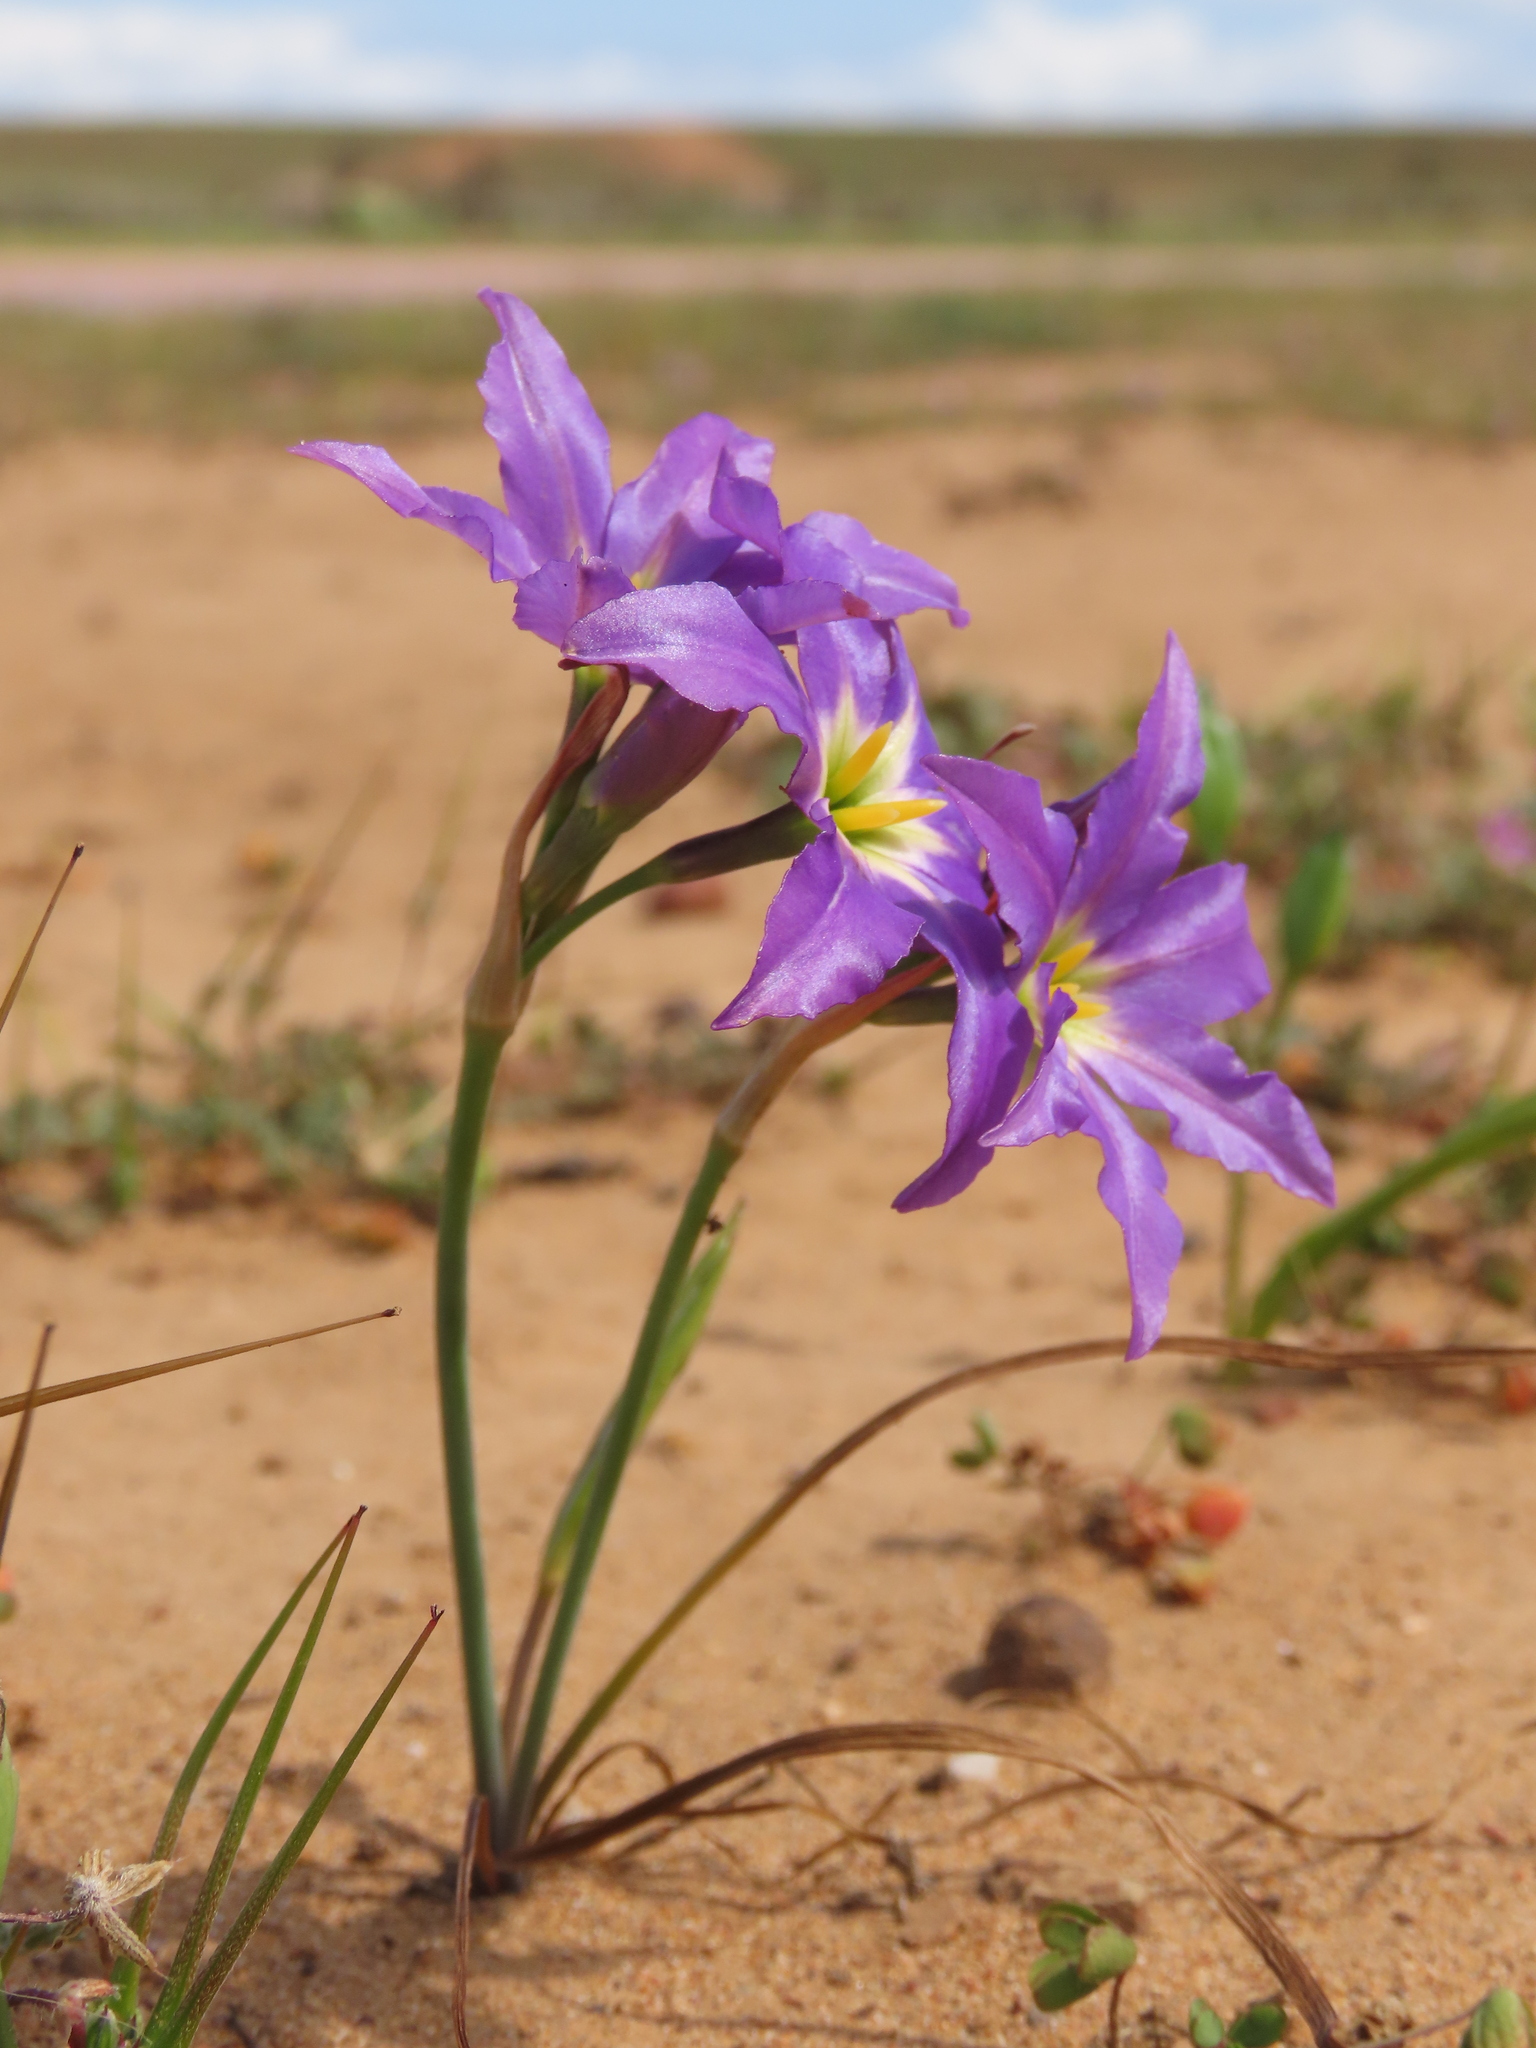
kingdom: Plantae
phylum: Tracheophyta
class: Liliopsida
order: Asparagales
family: Amaryllidaceae
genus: Leucocoryne
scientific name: Leucocoryne coquimbensis
